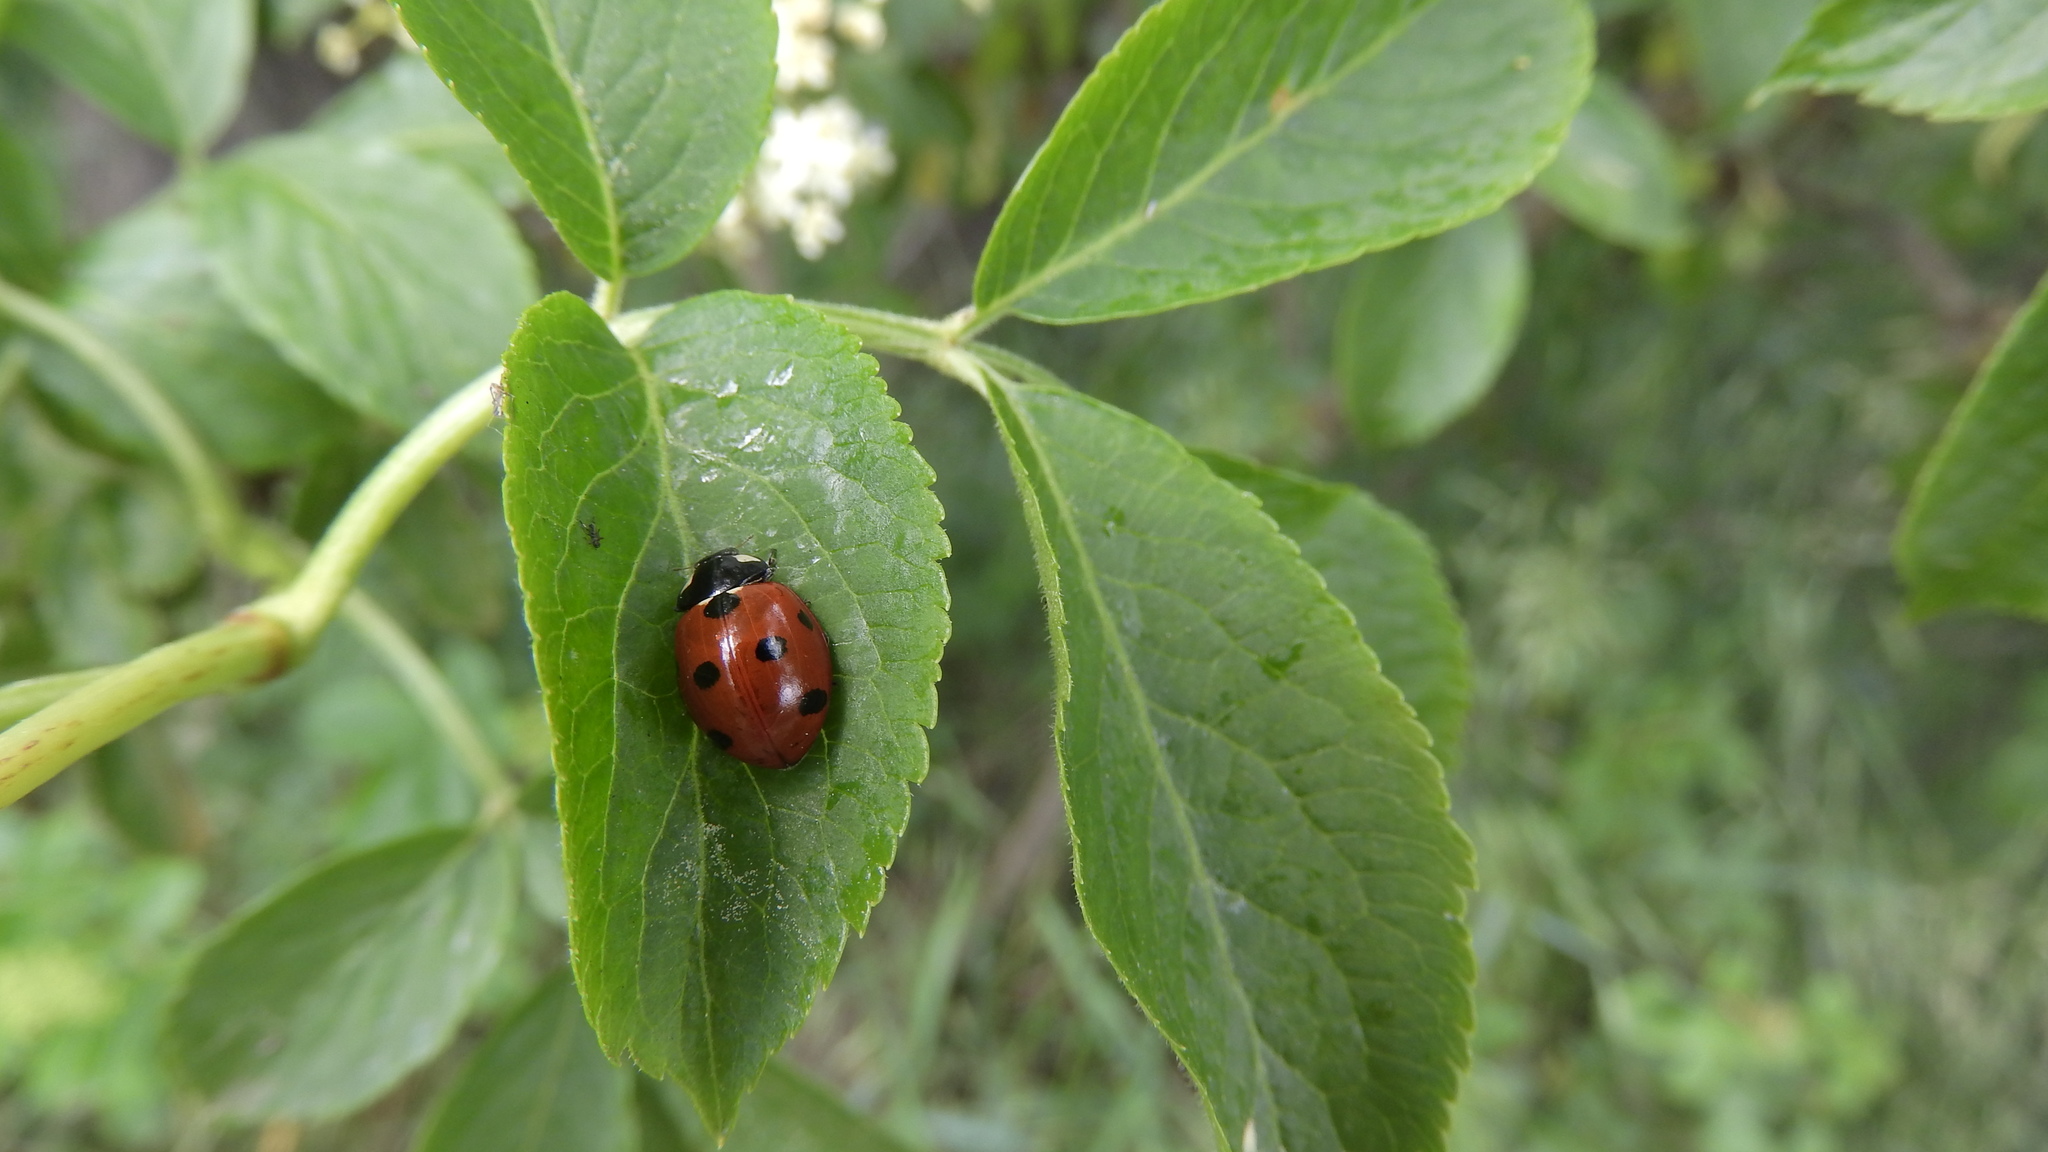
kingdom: Animalia
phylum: Arthropoda
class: Insecta
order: Coleoptera
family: Coccinellidae
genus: Coccinella
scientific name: Coccinella septempunctata
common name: Sevenspotted lady beetle
